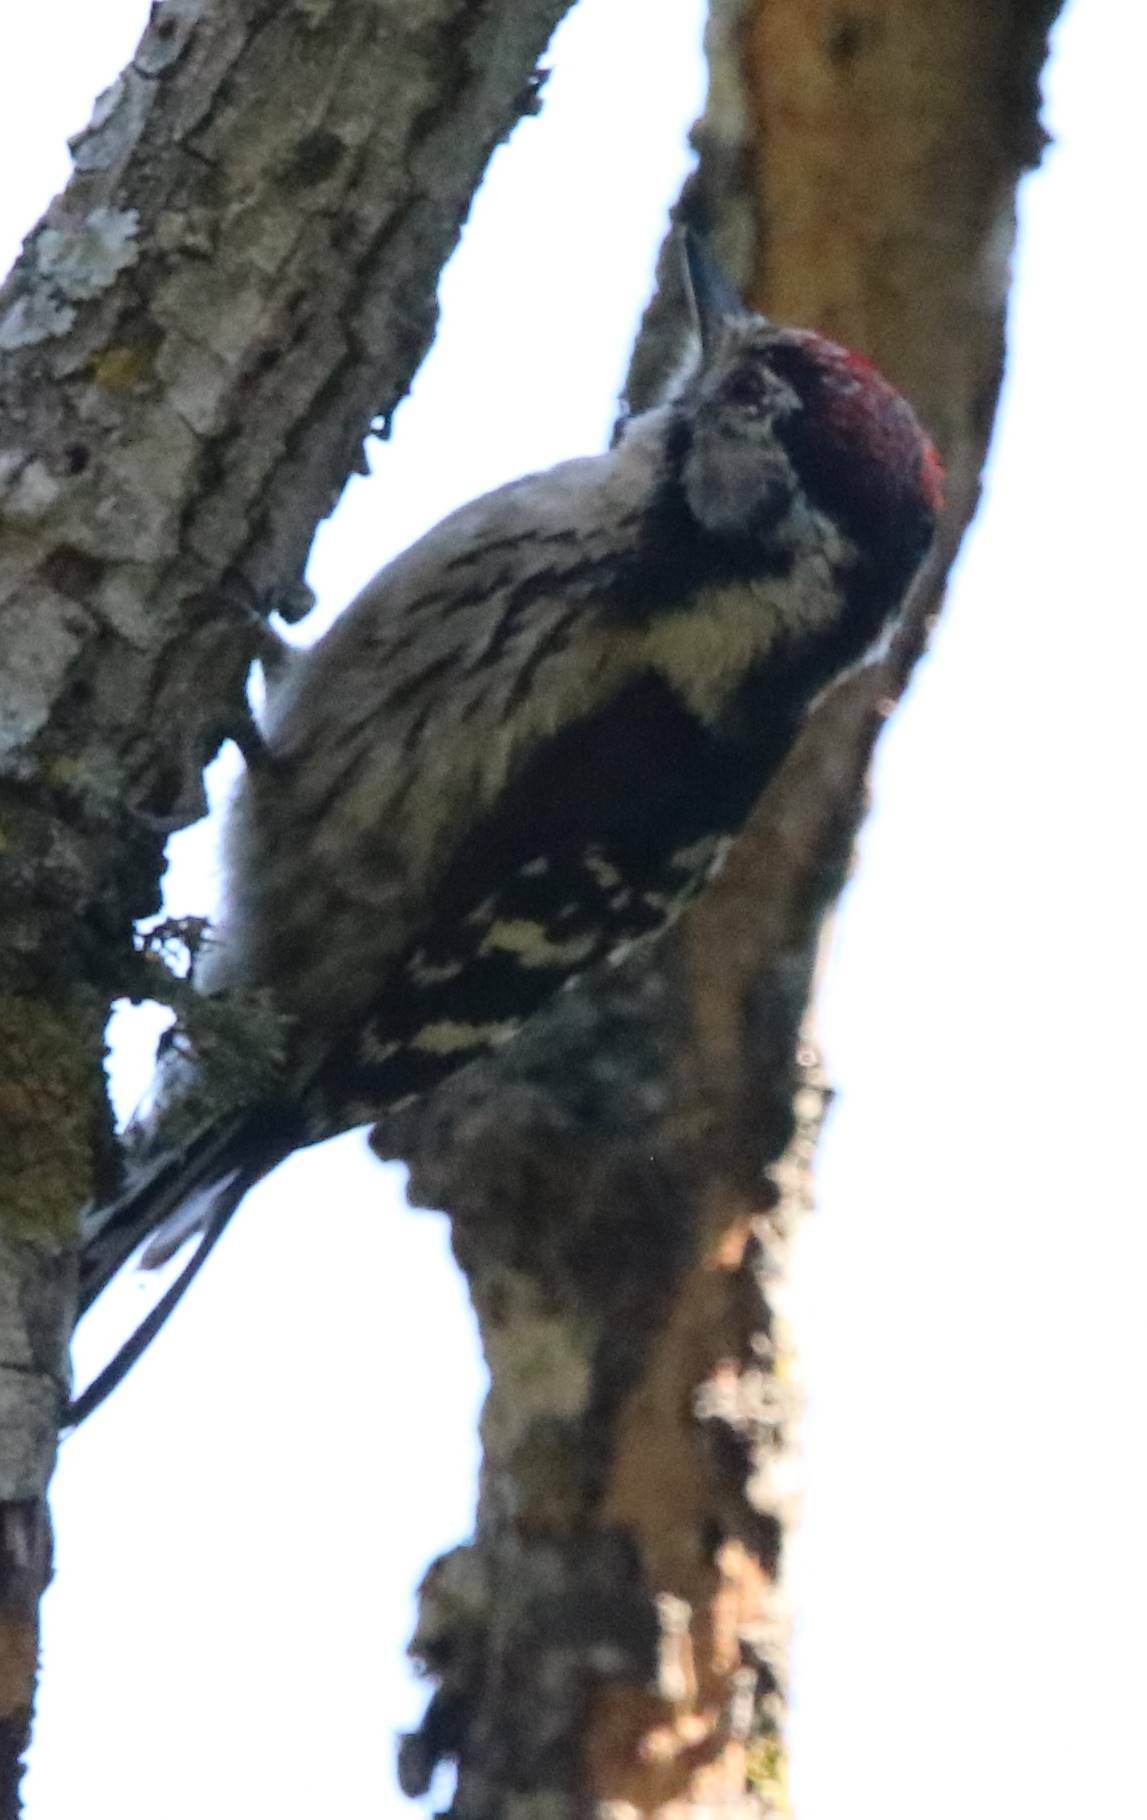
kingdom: Animalia
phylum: Chordata
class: Aves
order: Piciformes
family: Picidae
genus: Dryobates
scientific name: Dryobates minor
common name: Lesser spotted woodpecker
